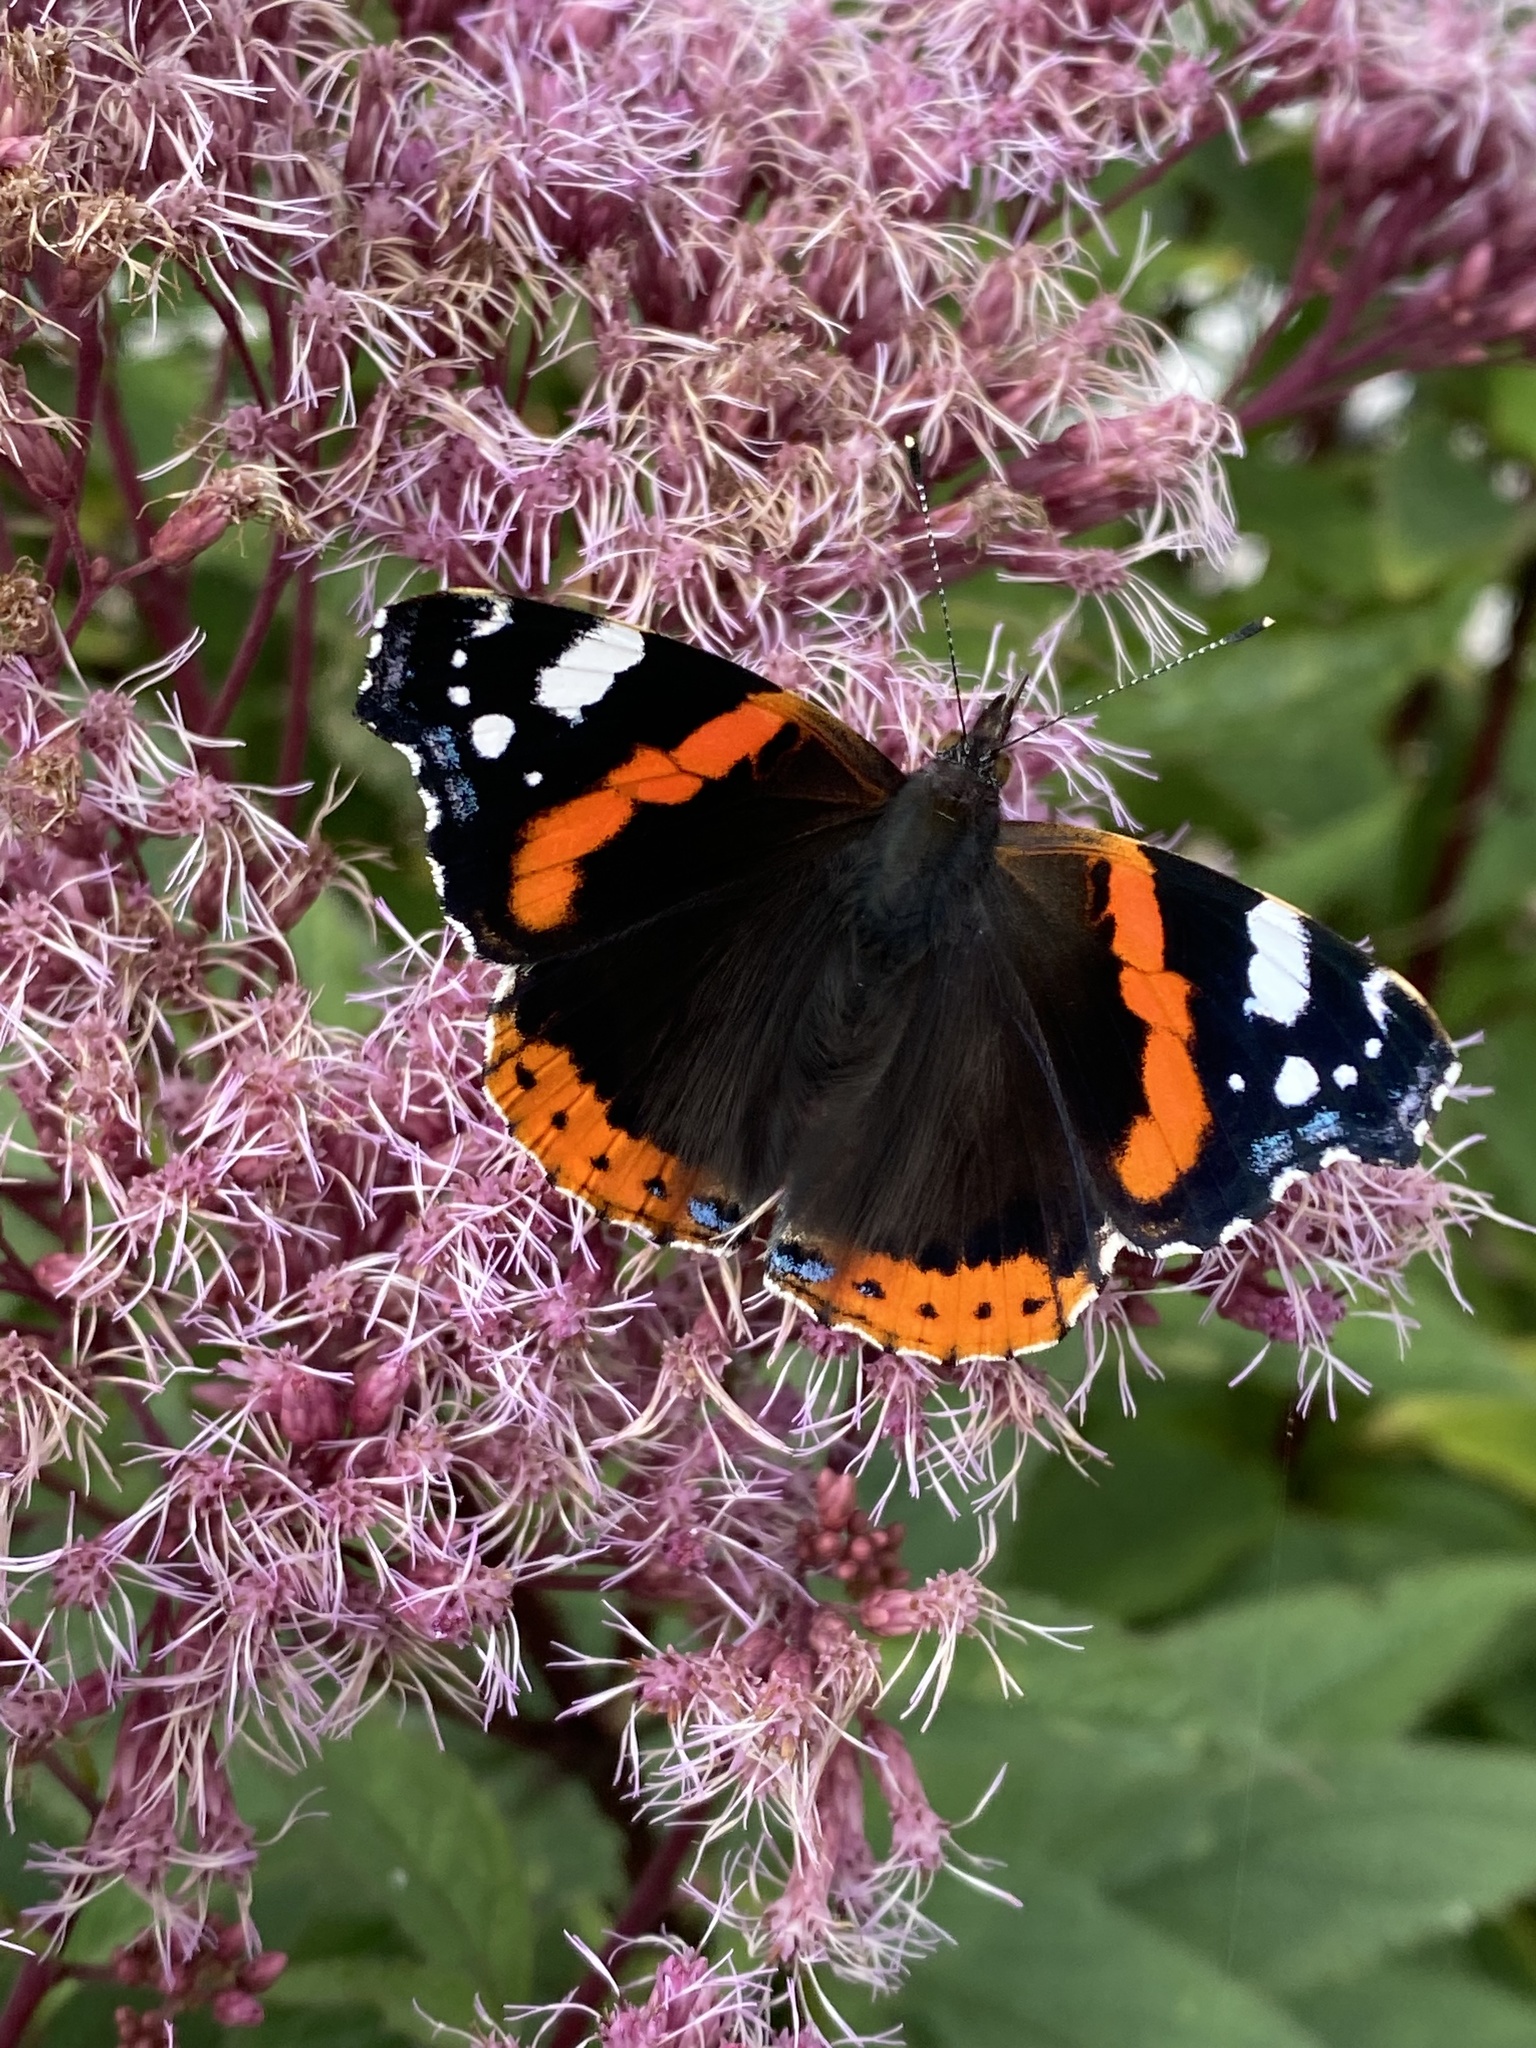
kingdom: Animalia
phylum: Arthropoda
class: Insecta
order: Lepidoptera
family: Nymphalidae
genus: Vanessa
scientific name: Vanessa atalanta
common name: Red admiral
